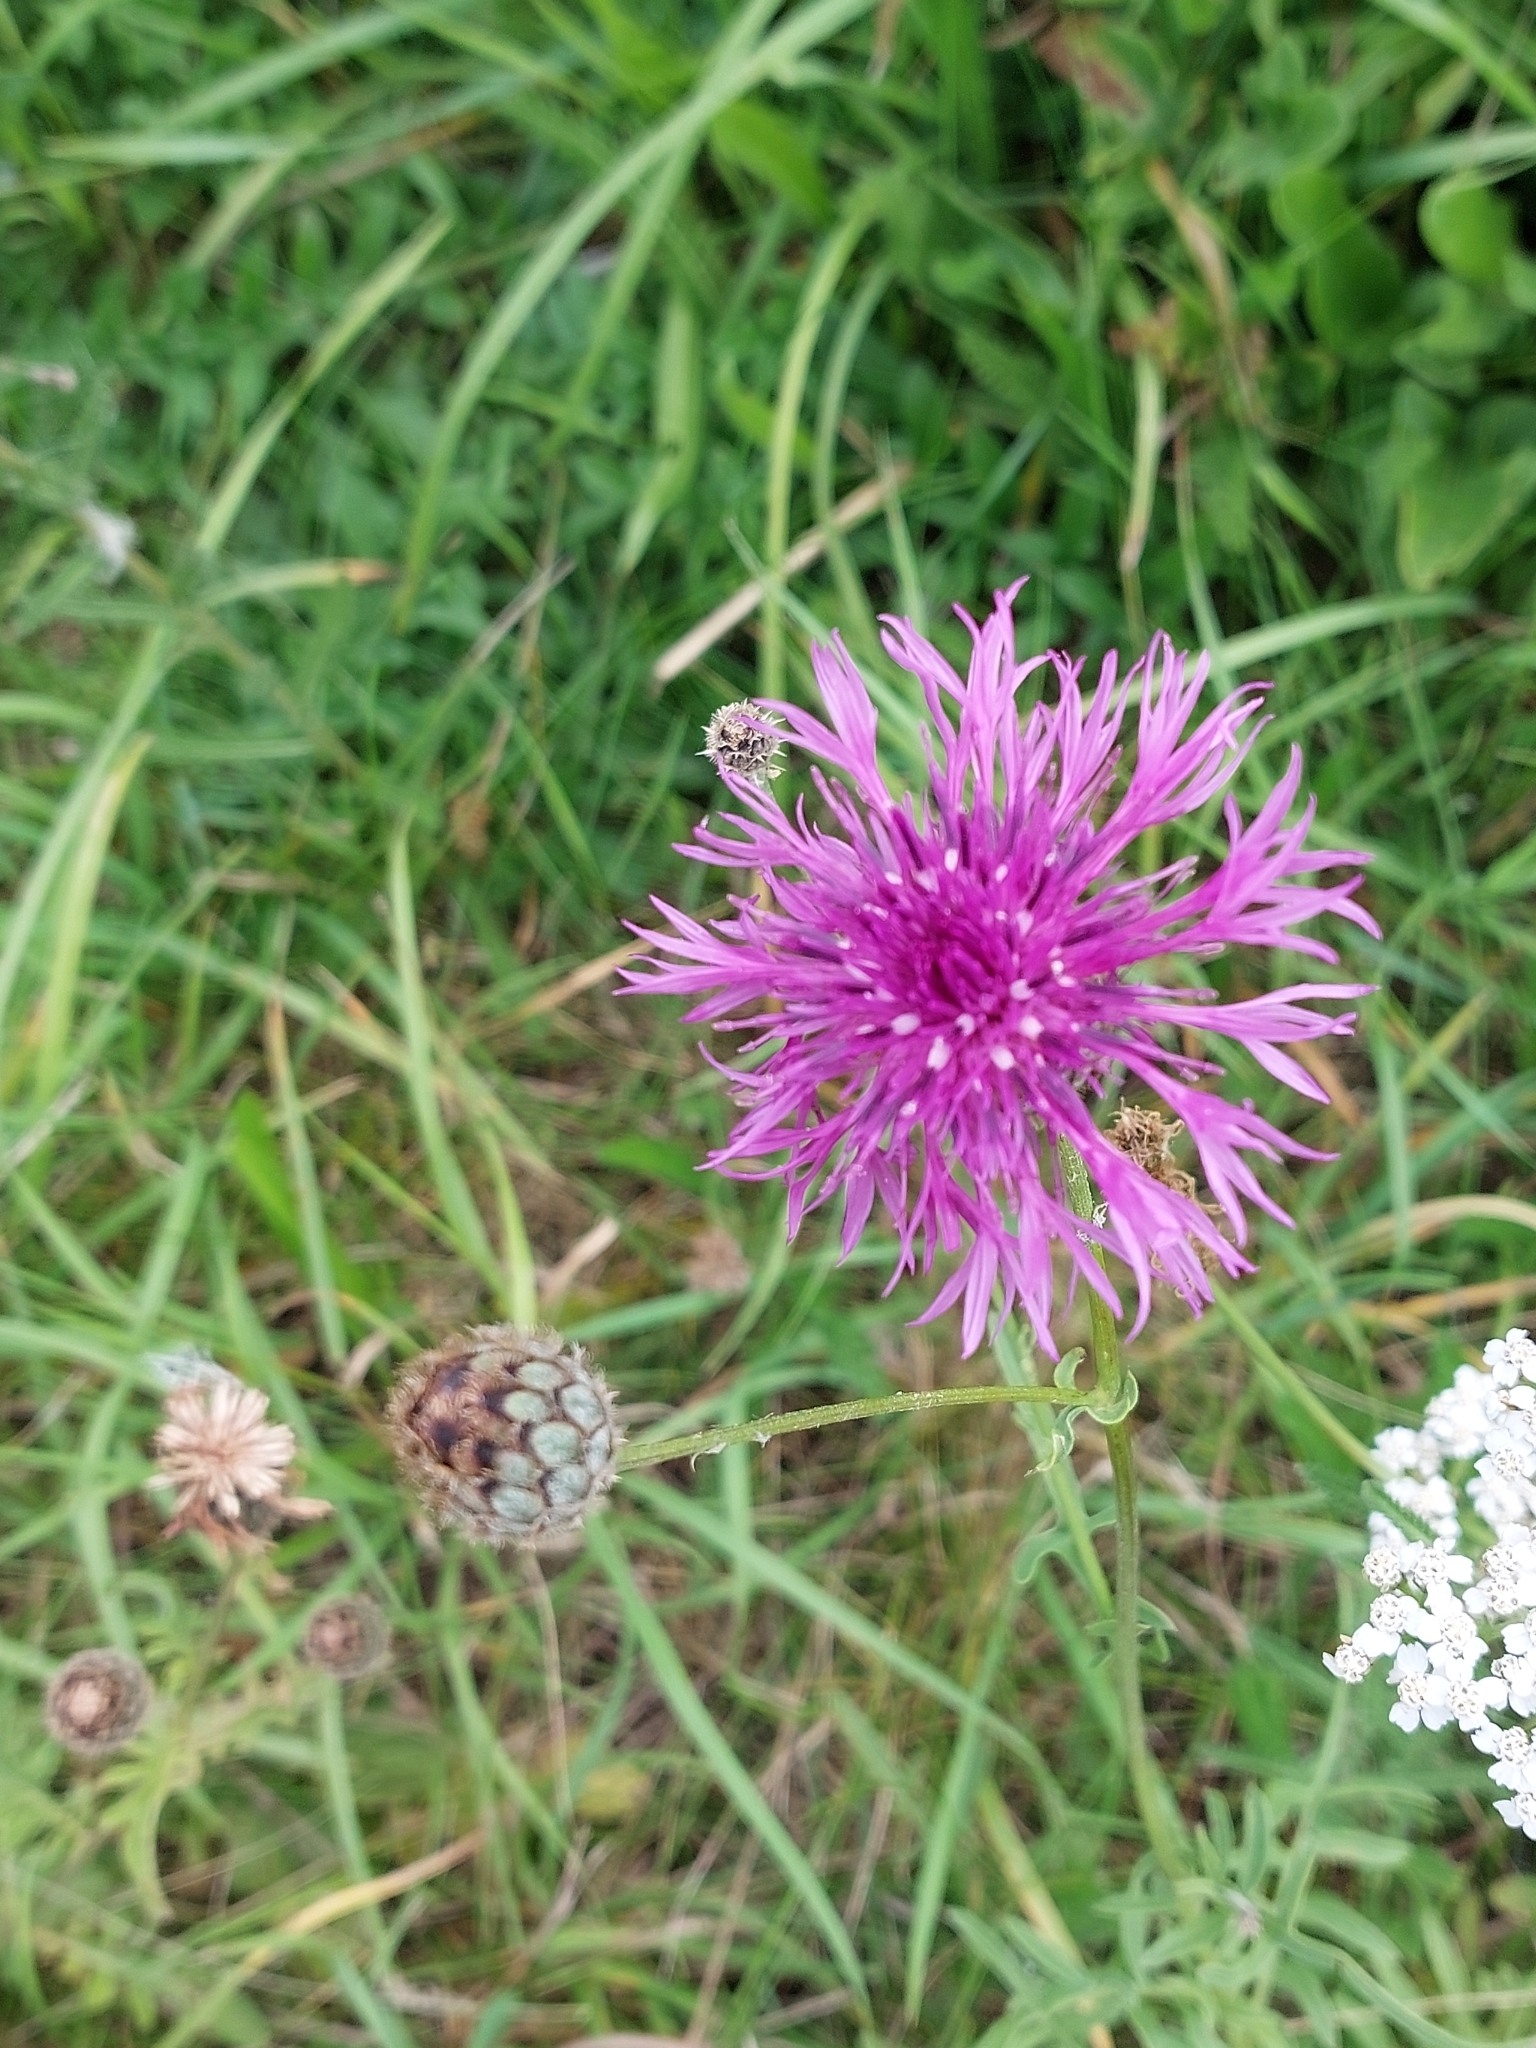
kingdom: Plantae
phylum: Tracheophyta
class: Magnoliopsida
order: Asterales
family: Asteraceae
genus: Centaurea
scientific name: Centaurea scabiosa
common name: Greater knapweed
